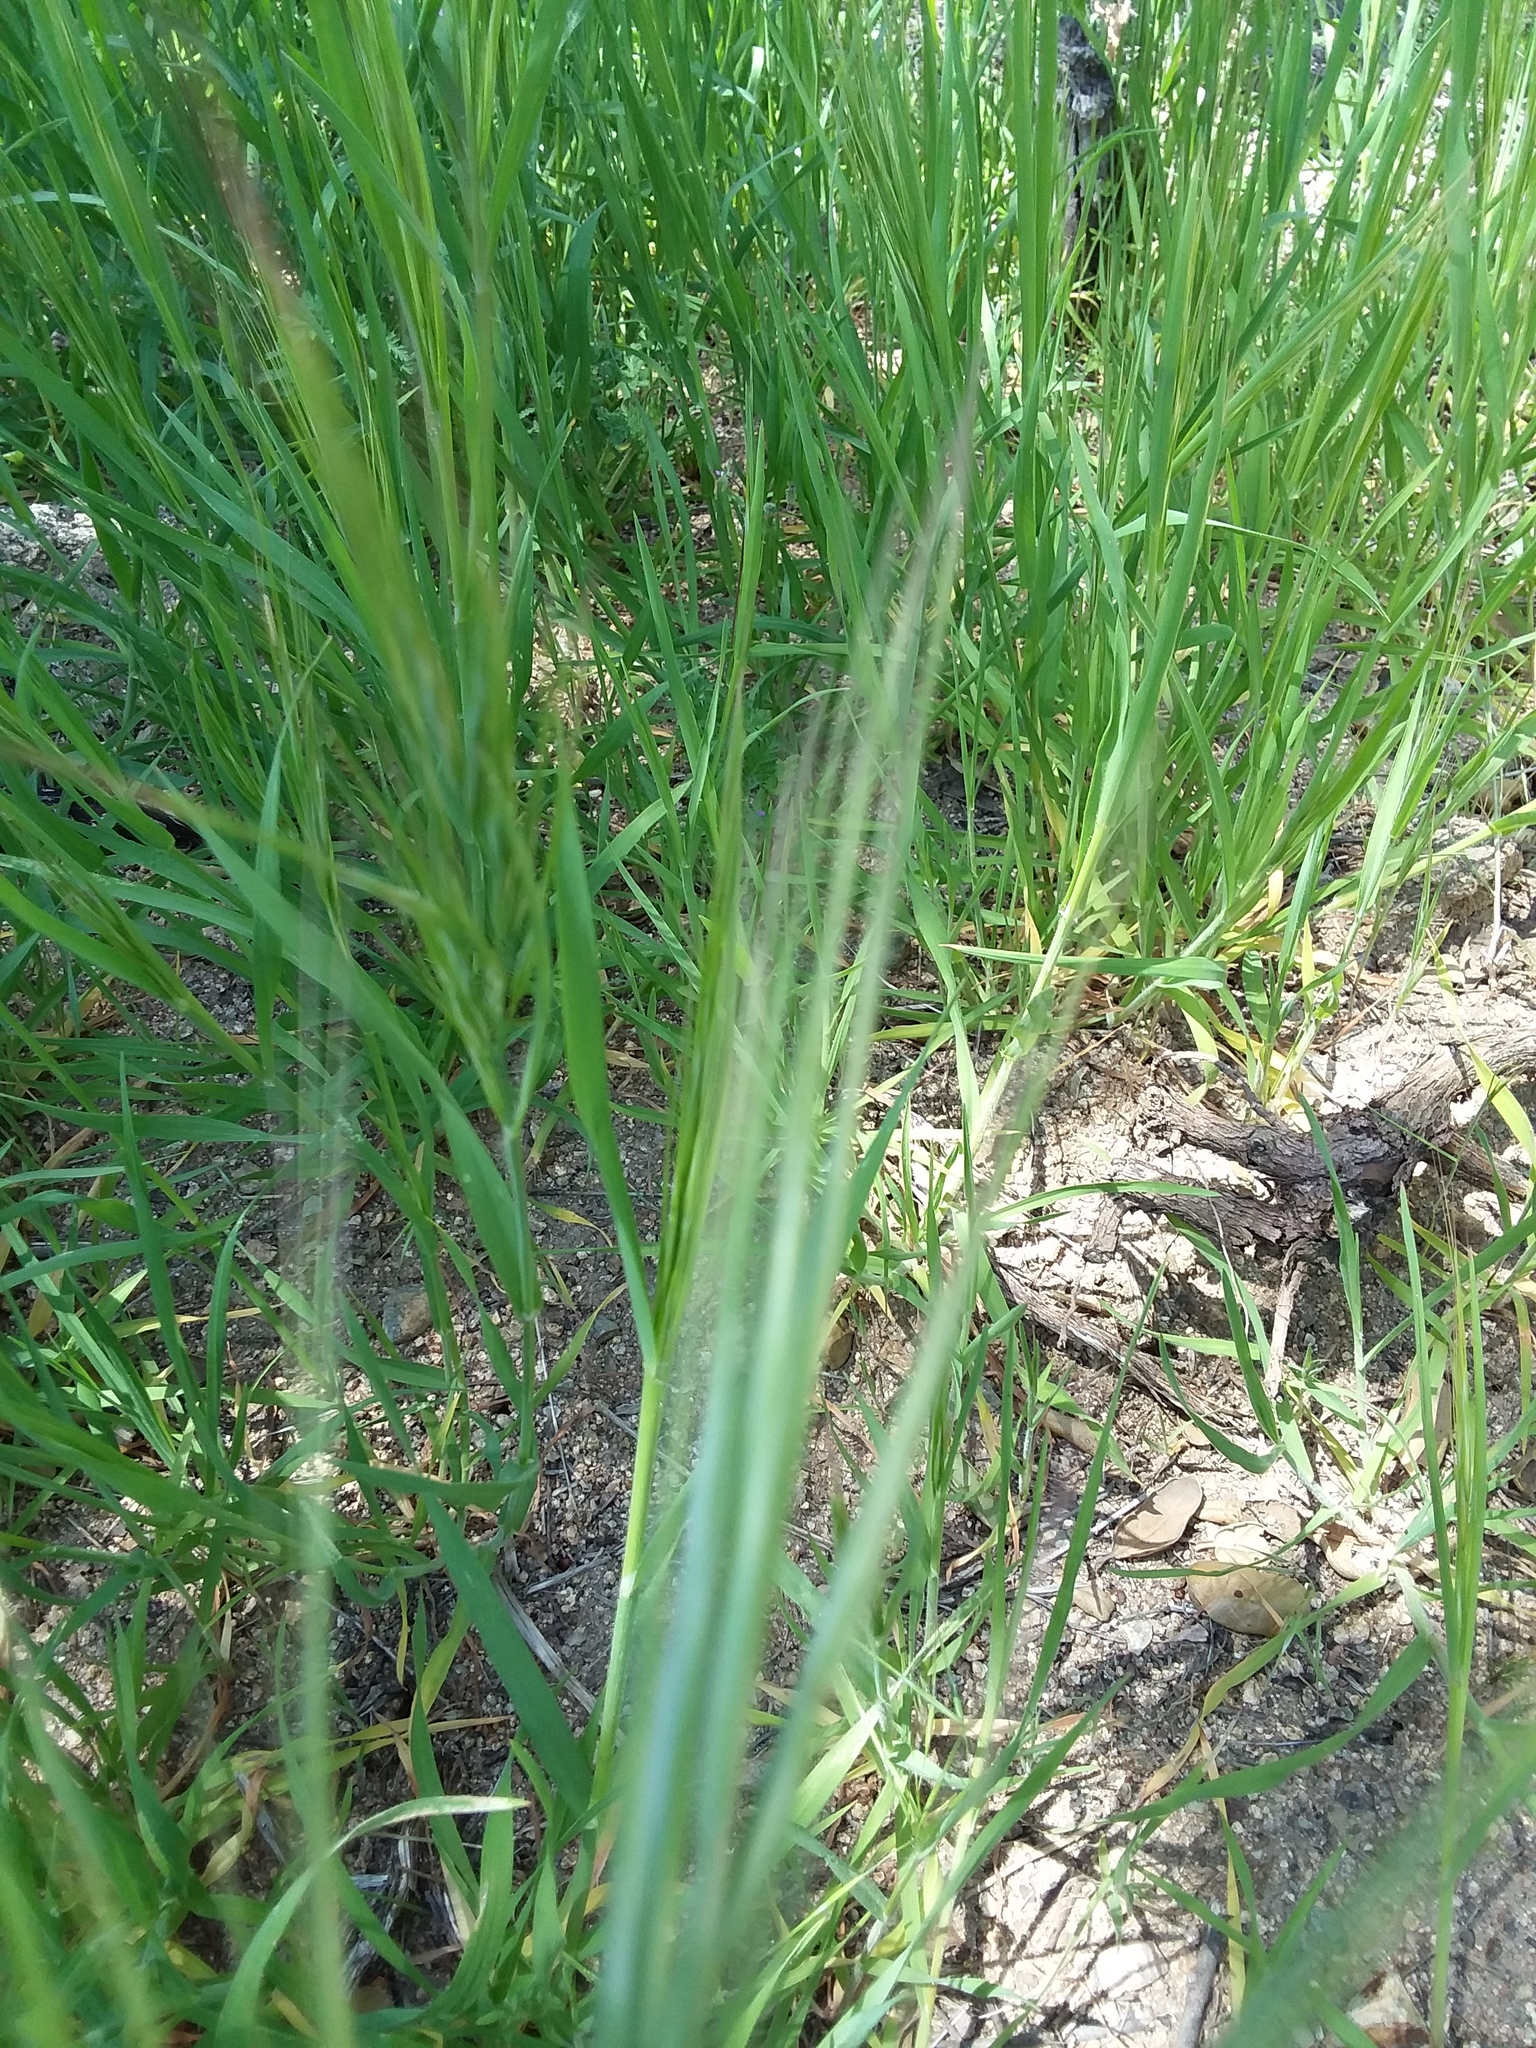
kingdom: Plantae
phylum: Tracheophyta
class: Liliopsida
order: Poales
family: Poaceae
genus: Bromus
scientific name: Bromus diandrus
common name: Ripgut brome
